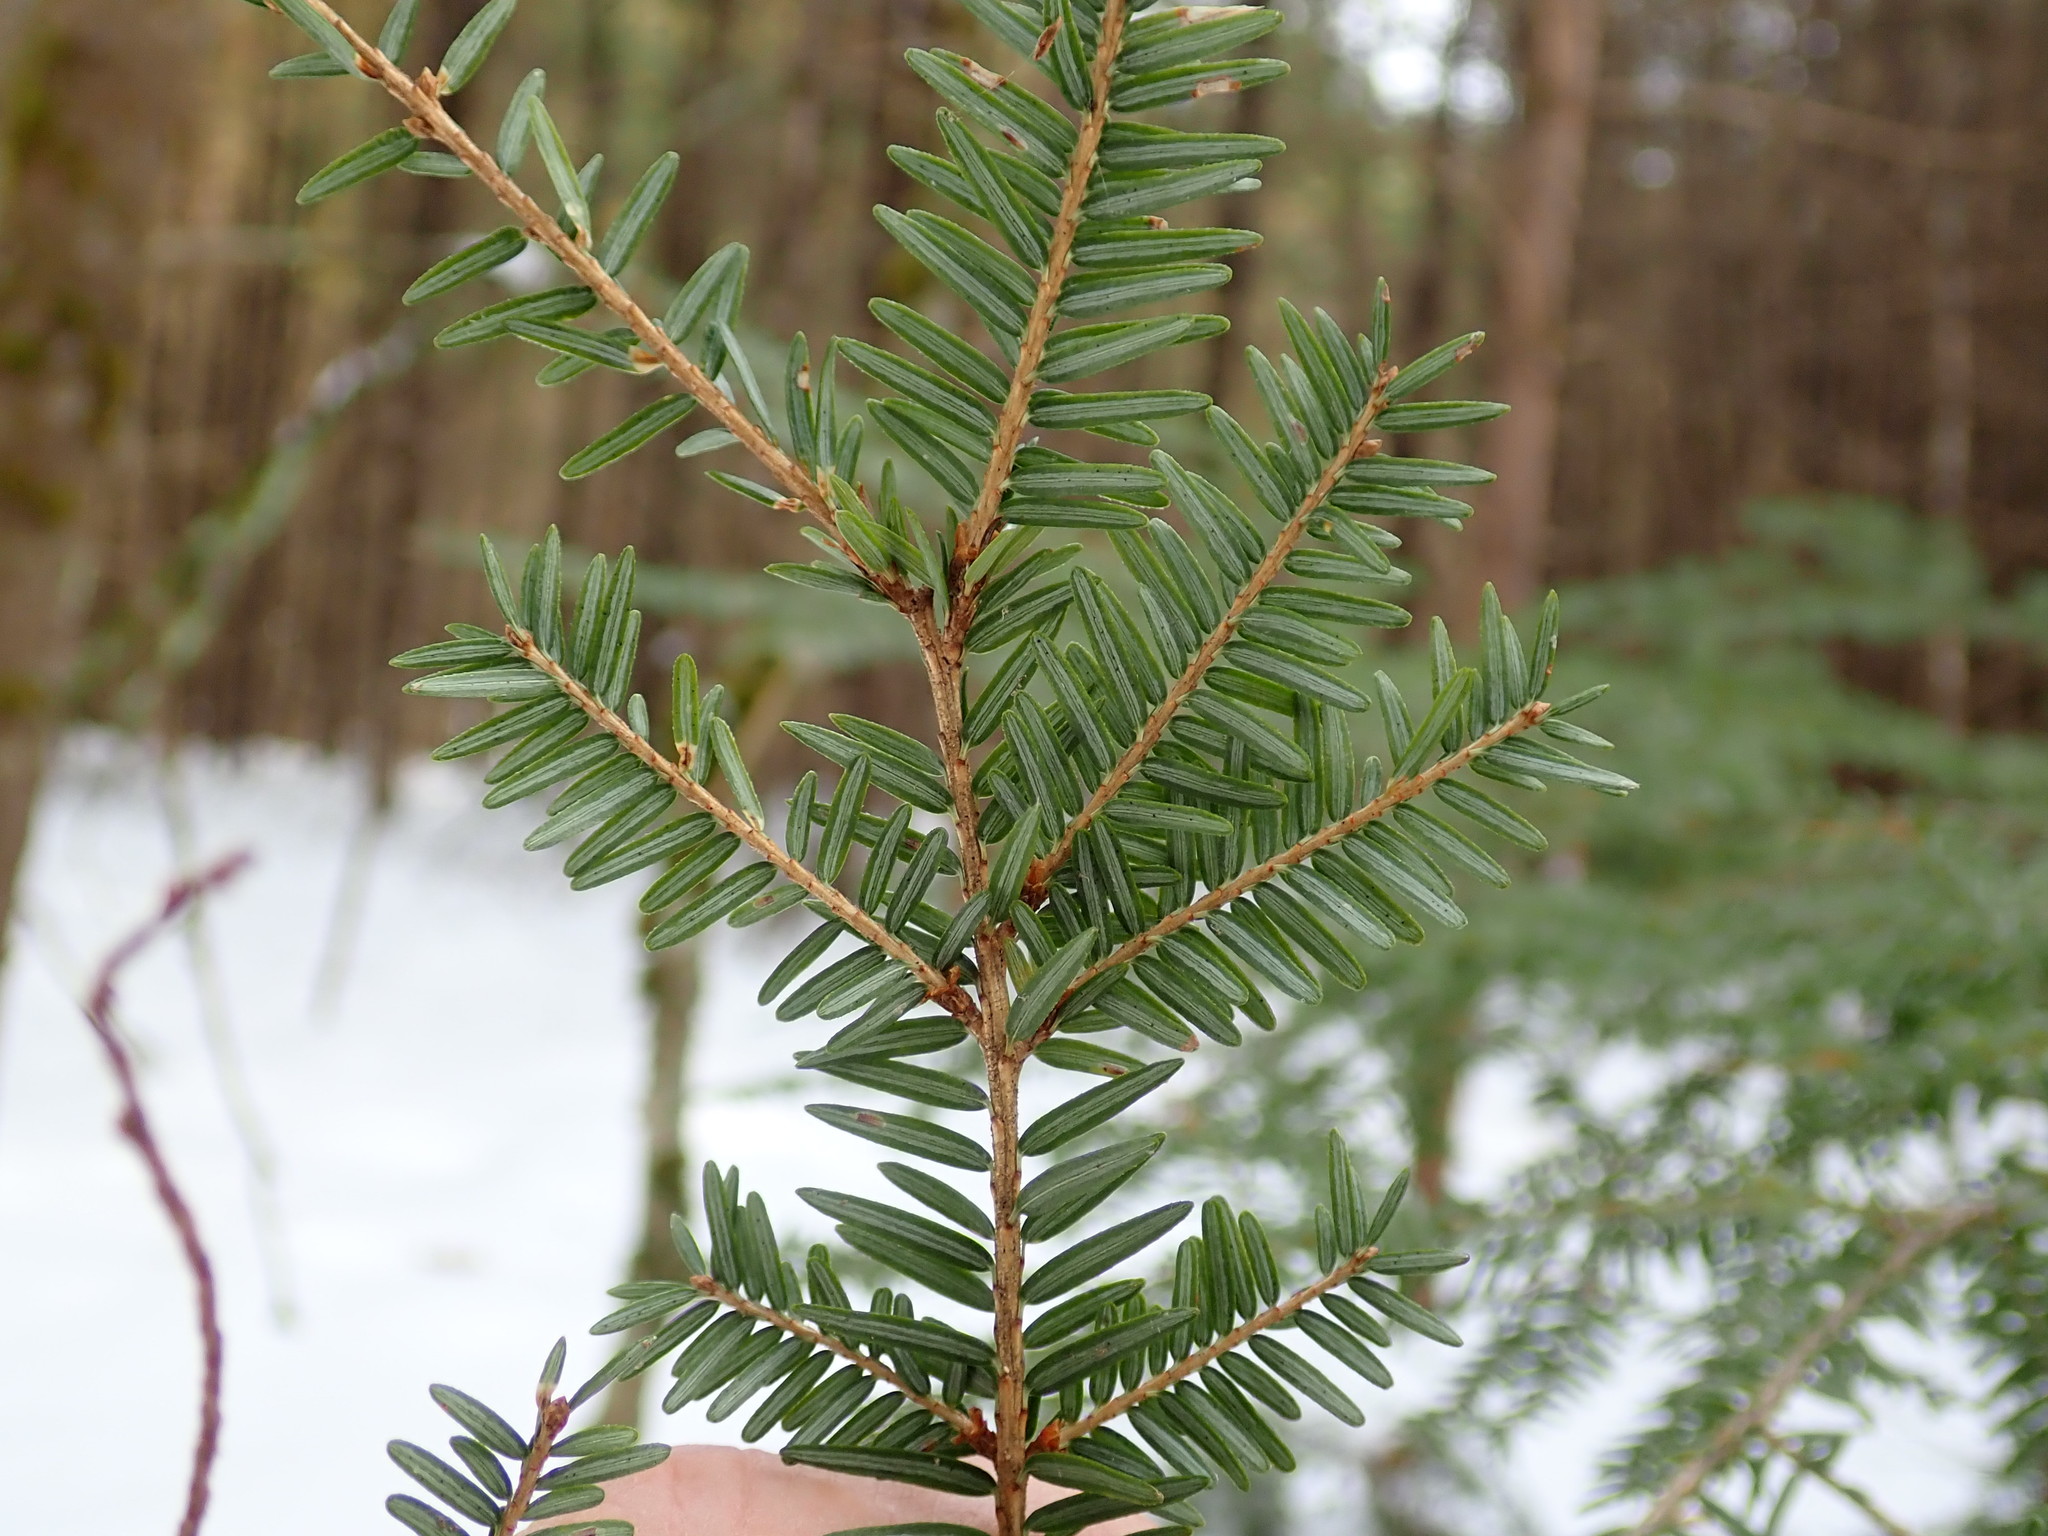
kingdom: Plantae
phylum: Tracheophyta
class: Pinopsida
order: Pinales
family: Pinaceae
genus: Tsuga
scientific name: Tsuga canadensis
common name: Eastern hemlock
